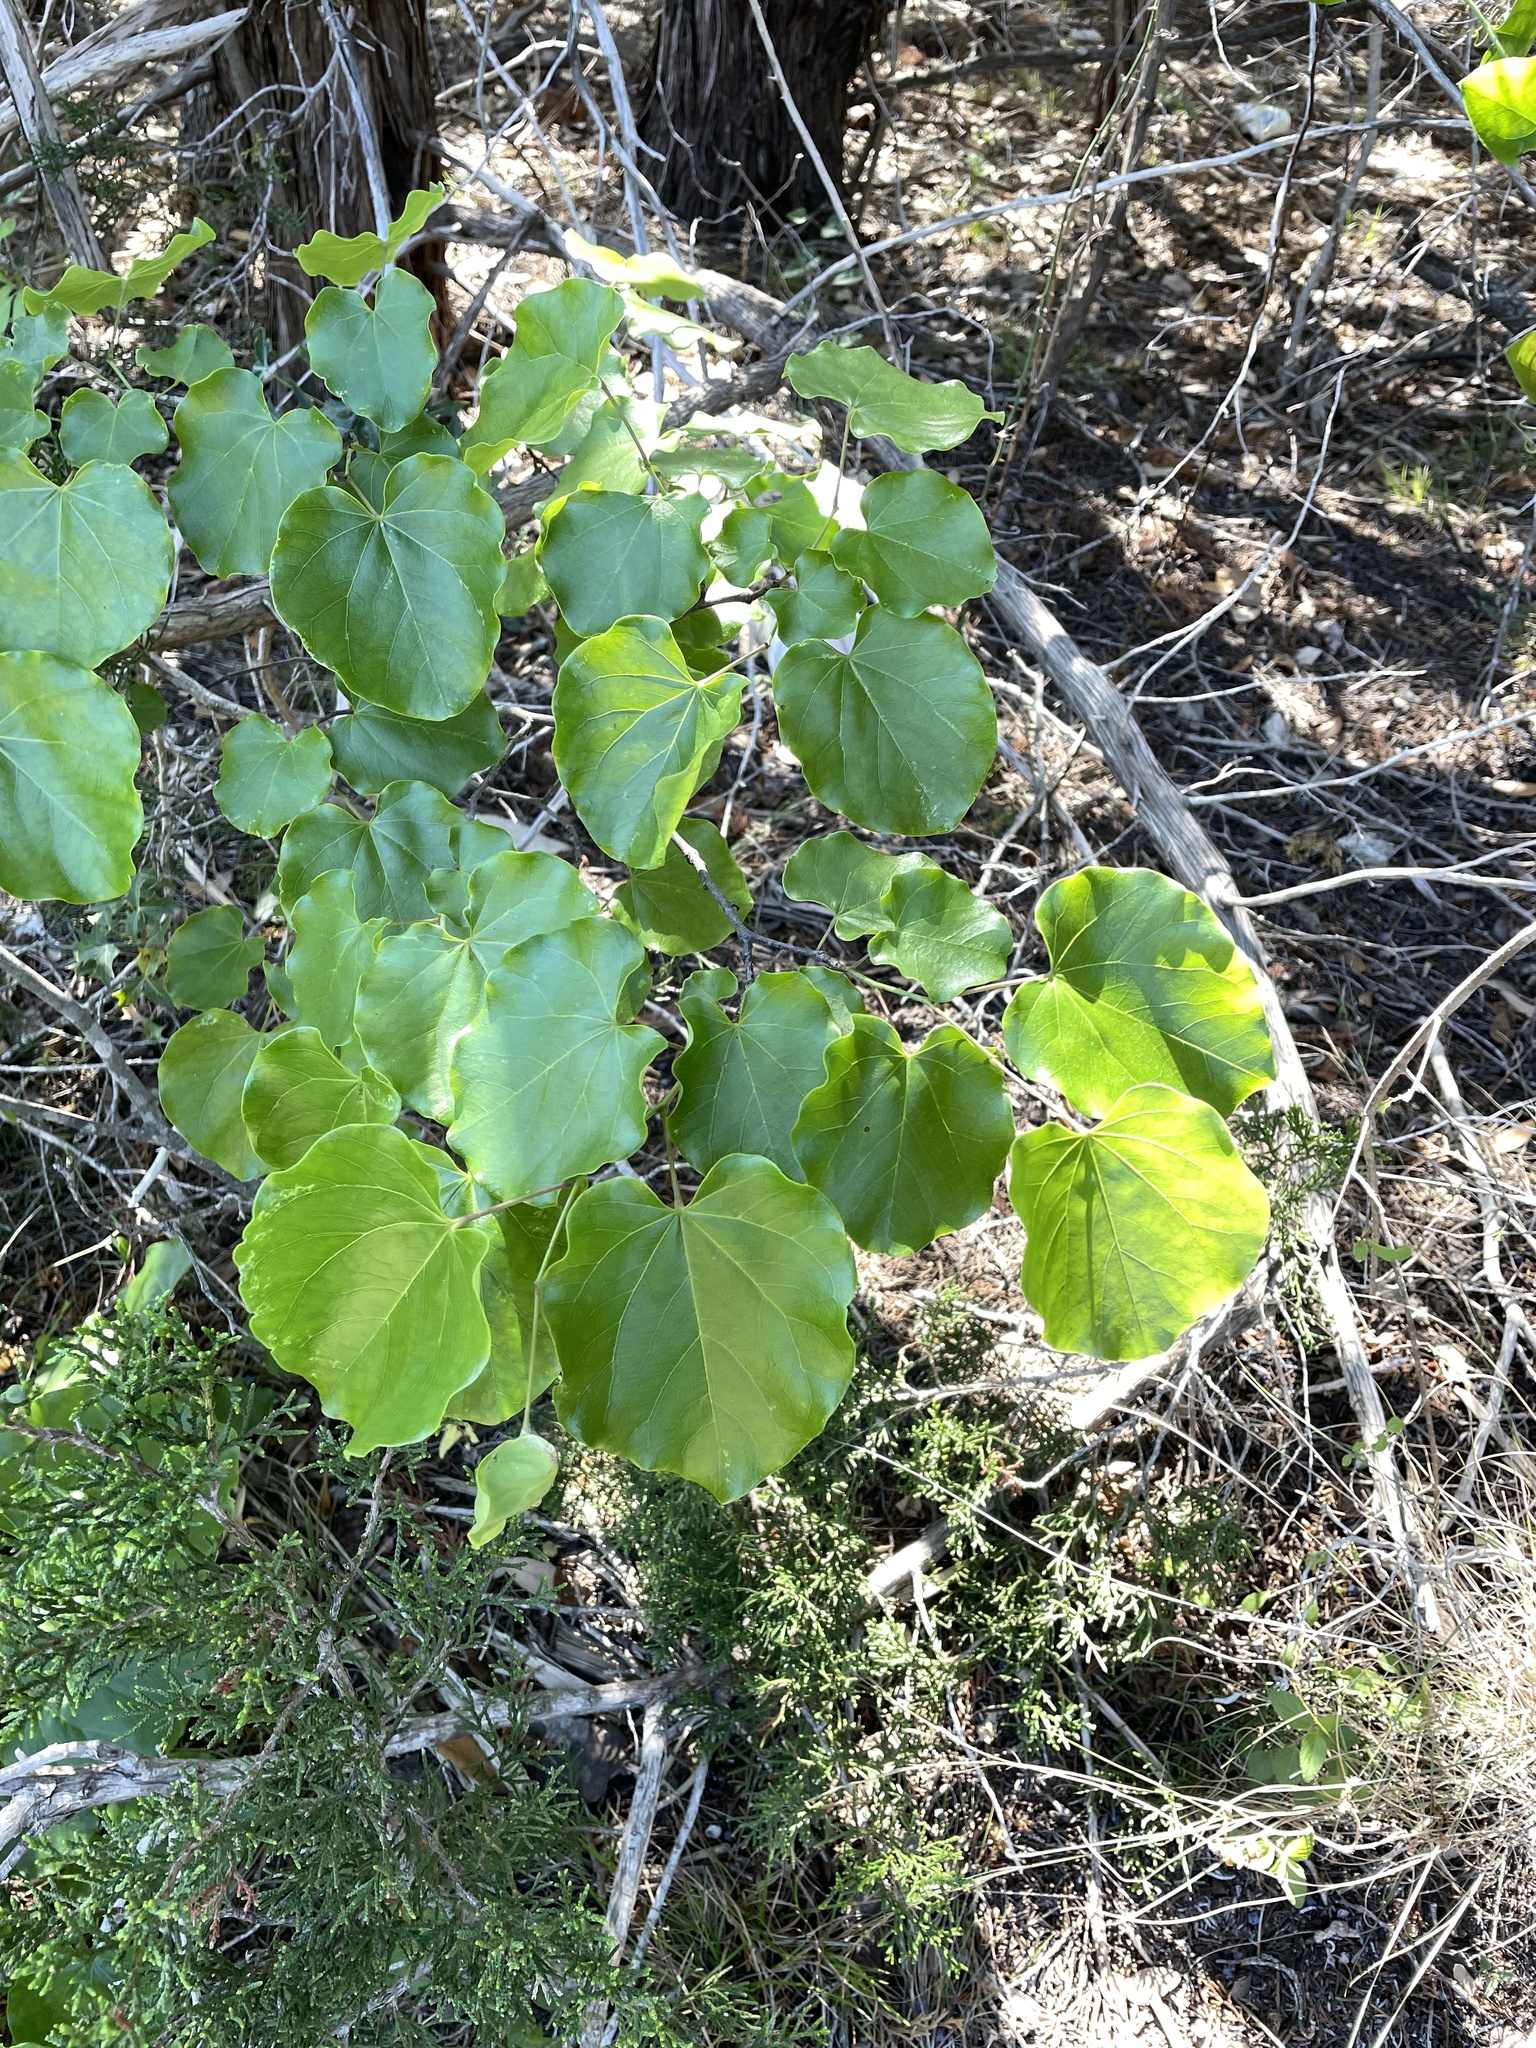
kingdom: Plantae
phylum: Tracheophyta
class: Magnoliopsida
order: Fabales
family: Fabaceae
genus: Cercis
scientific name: Cercis canadensis
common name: Eastern redbud
